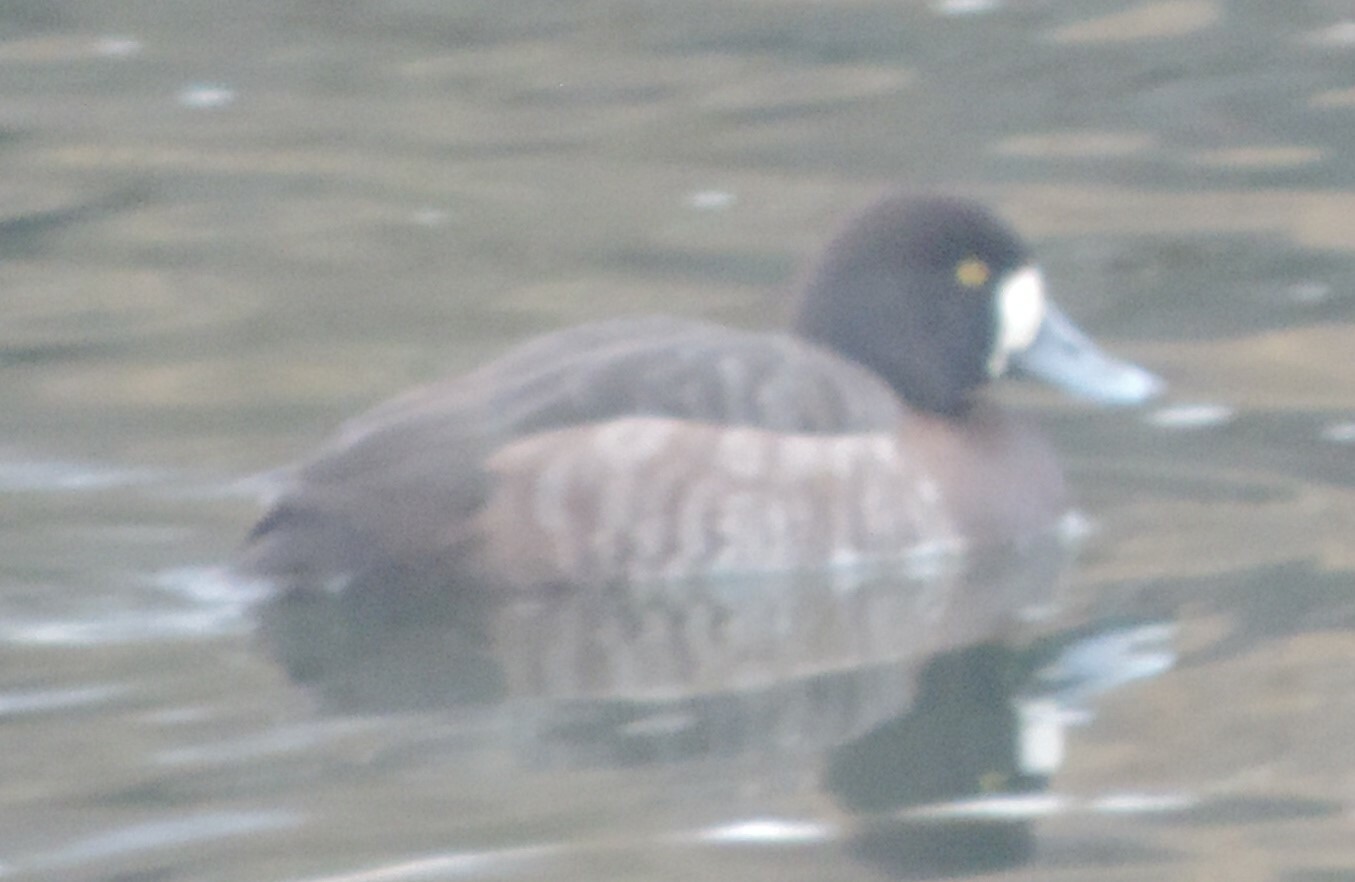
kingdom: Animalia
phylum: Chordata
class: Aves
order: Anseriformes
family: Anatidae
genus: Aythya
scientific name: Aythya marila
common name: Greater scaup
